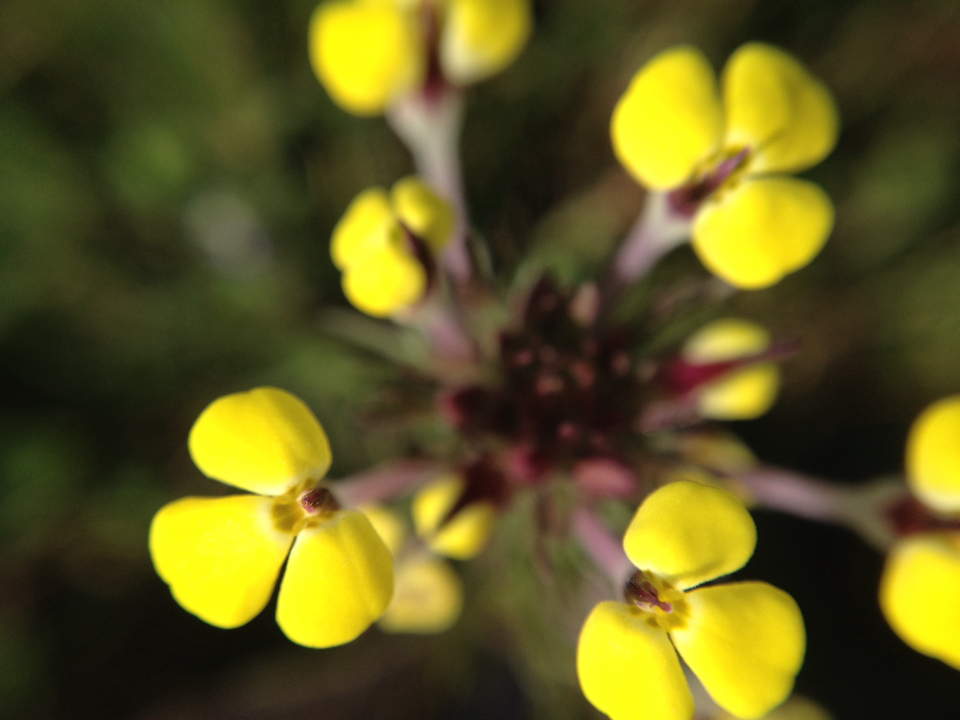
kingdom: Plantae
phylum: Tracheophyta
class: Magnoliopsida
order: Lamiales
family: Orobanchaceae
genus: Triphysaria
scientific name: Triphysaria eriantha
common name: Johnny-tuck
